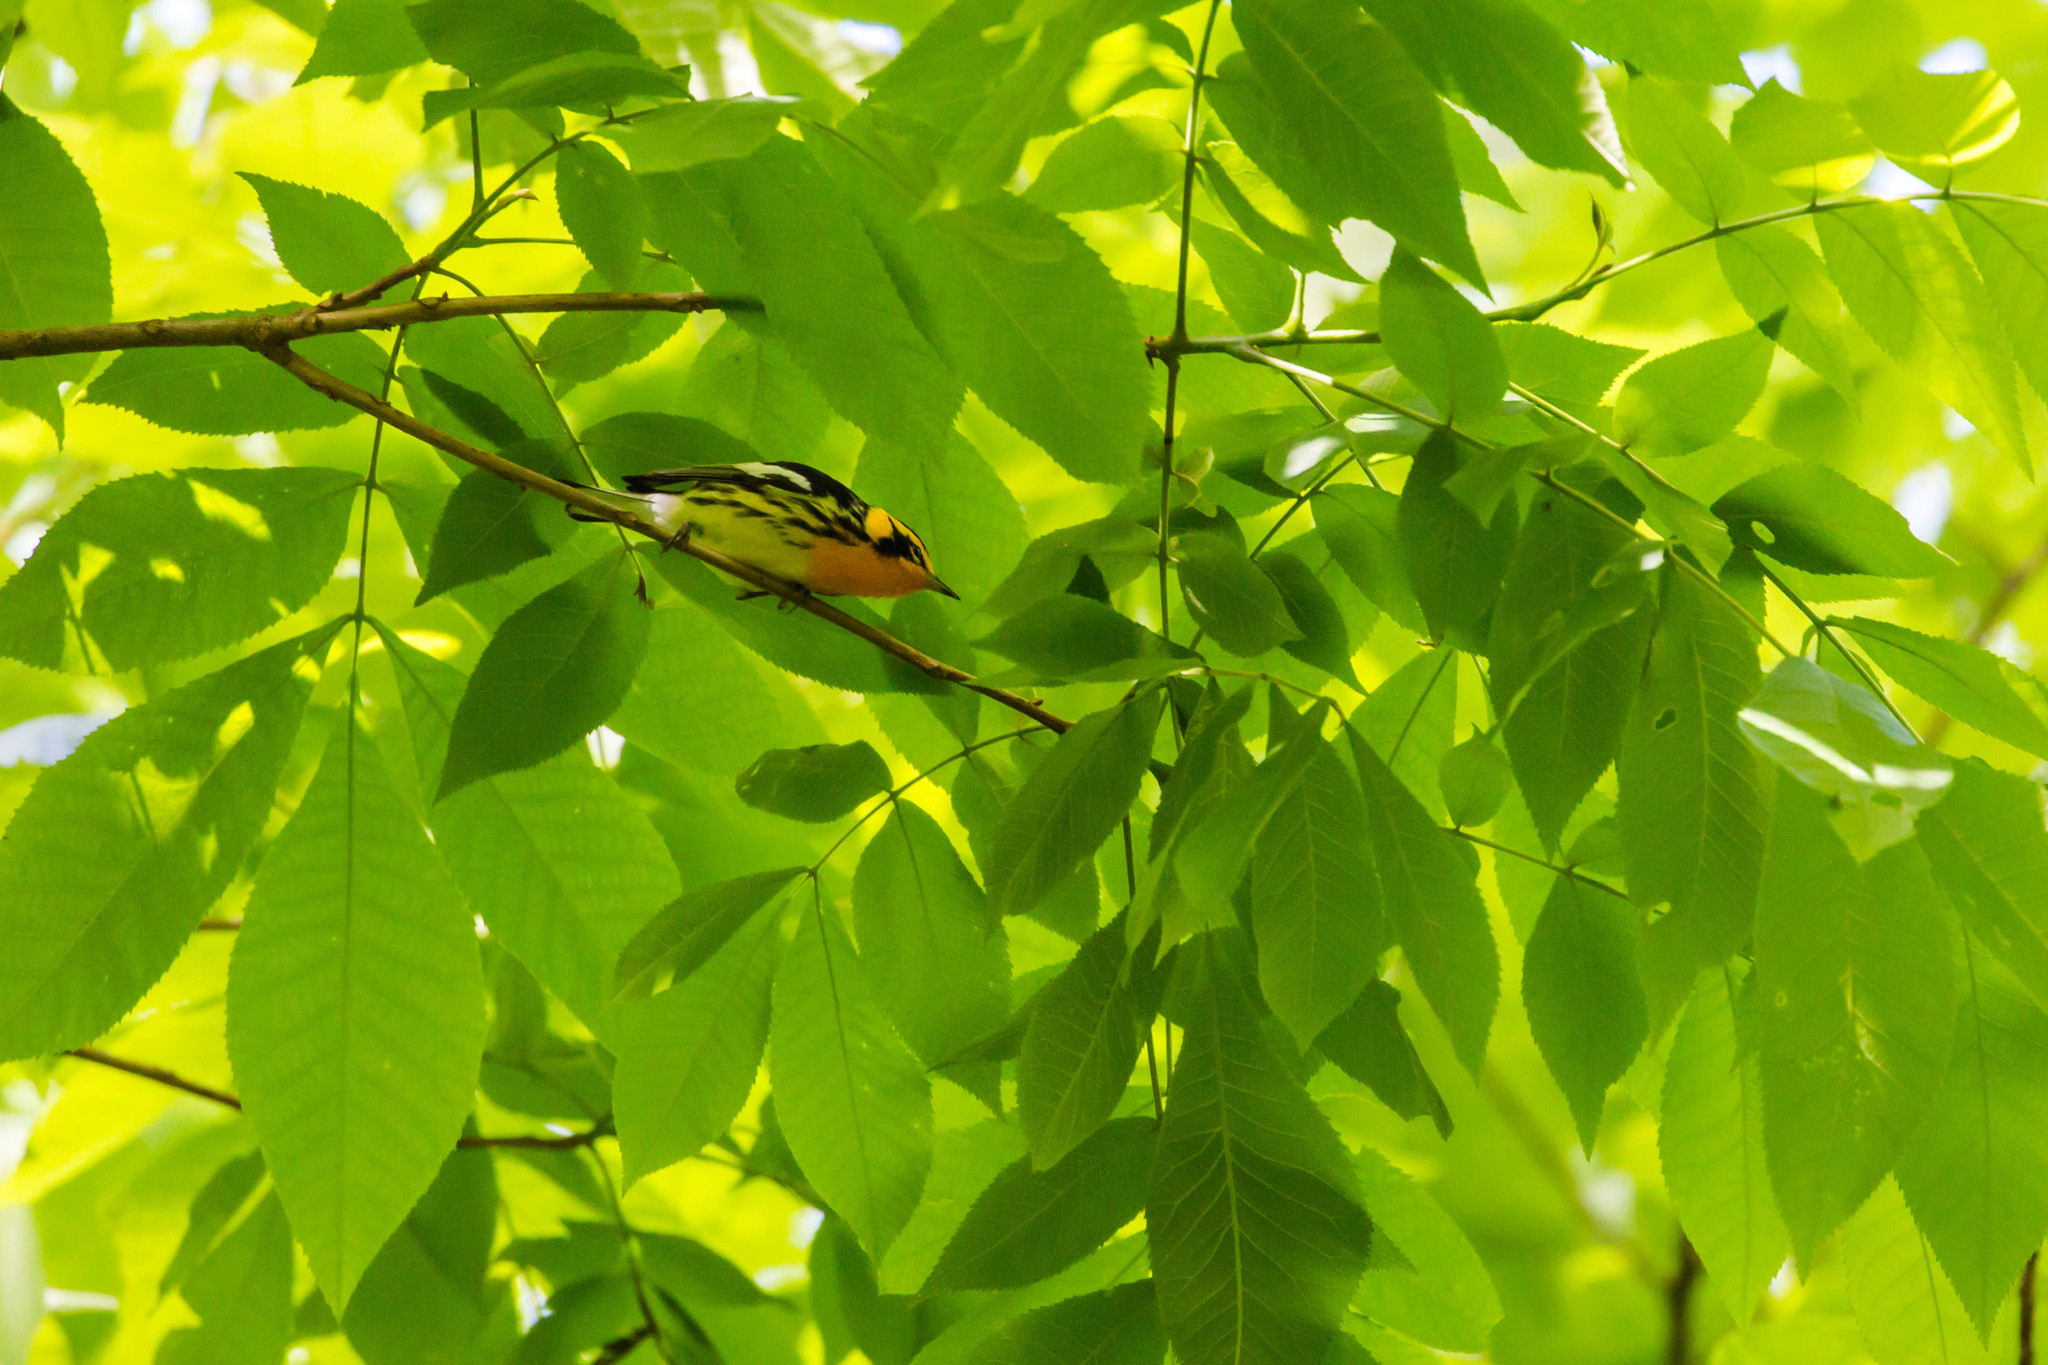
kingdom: Animalia
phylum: Chordata
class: Aves
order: Passeriformes
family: Parulidae
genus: Setophaga
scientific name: Setophaga fusca
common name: Blackburnian warbler
